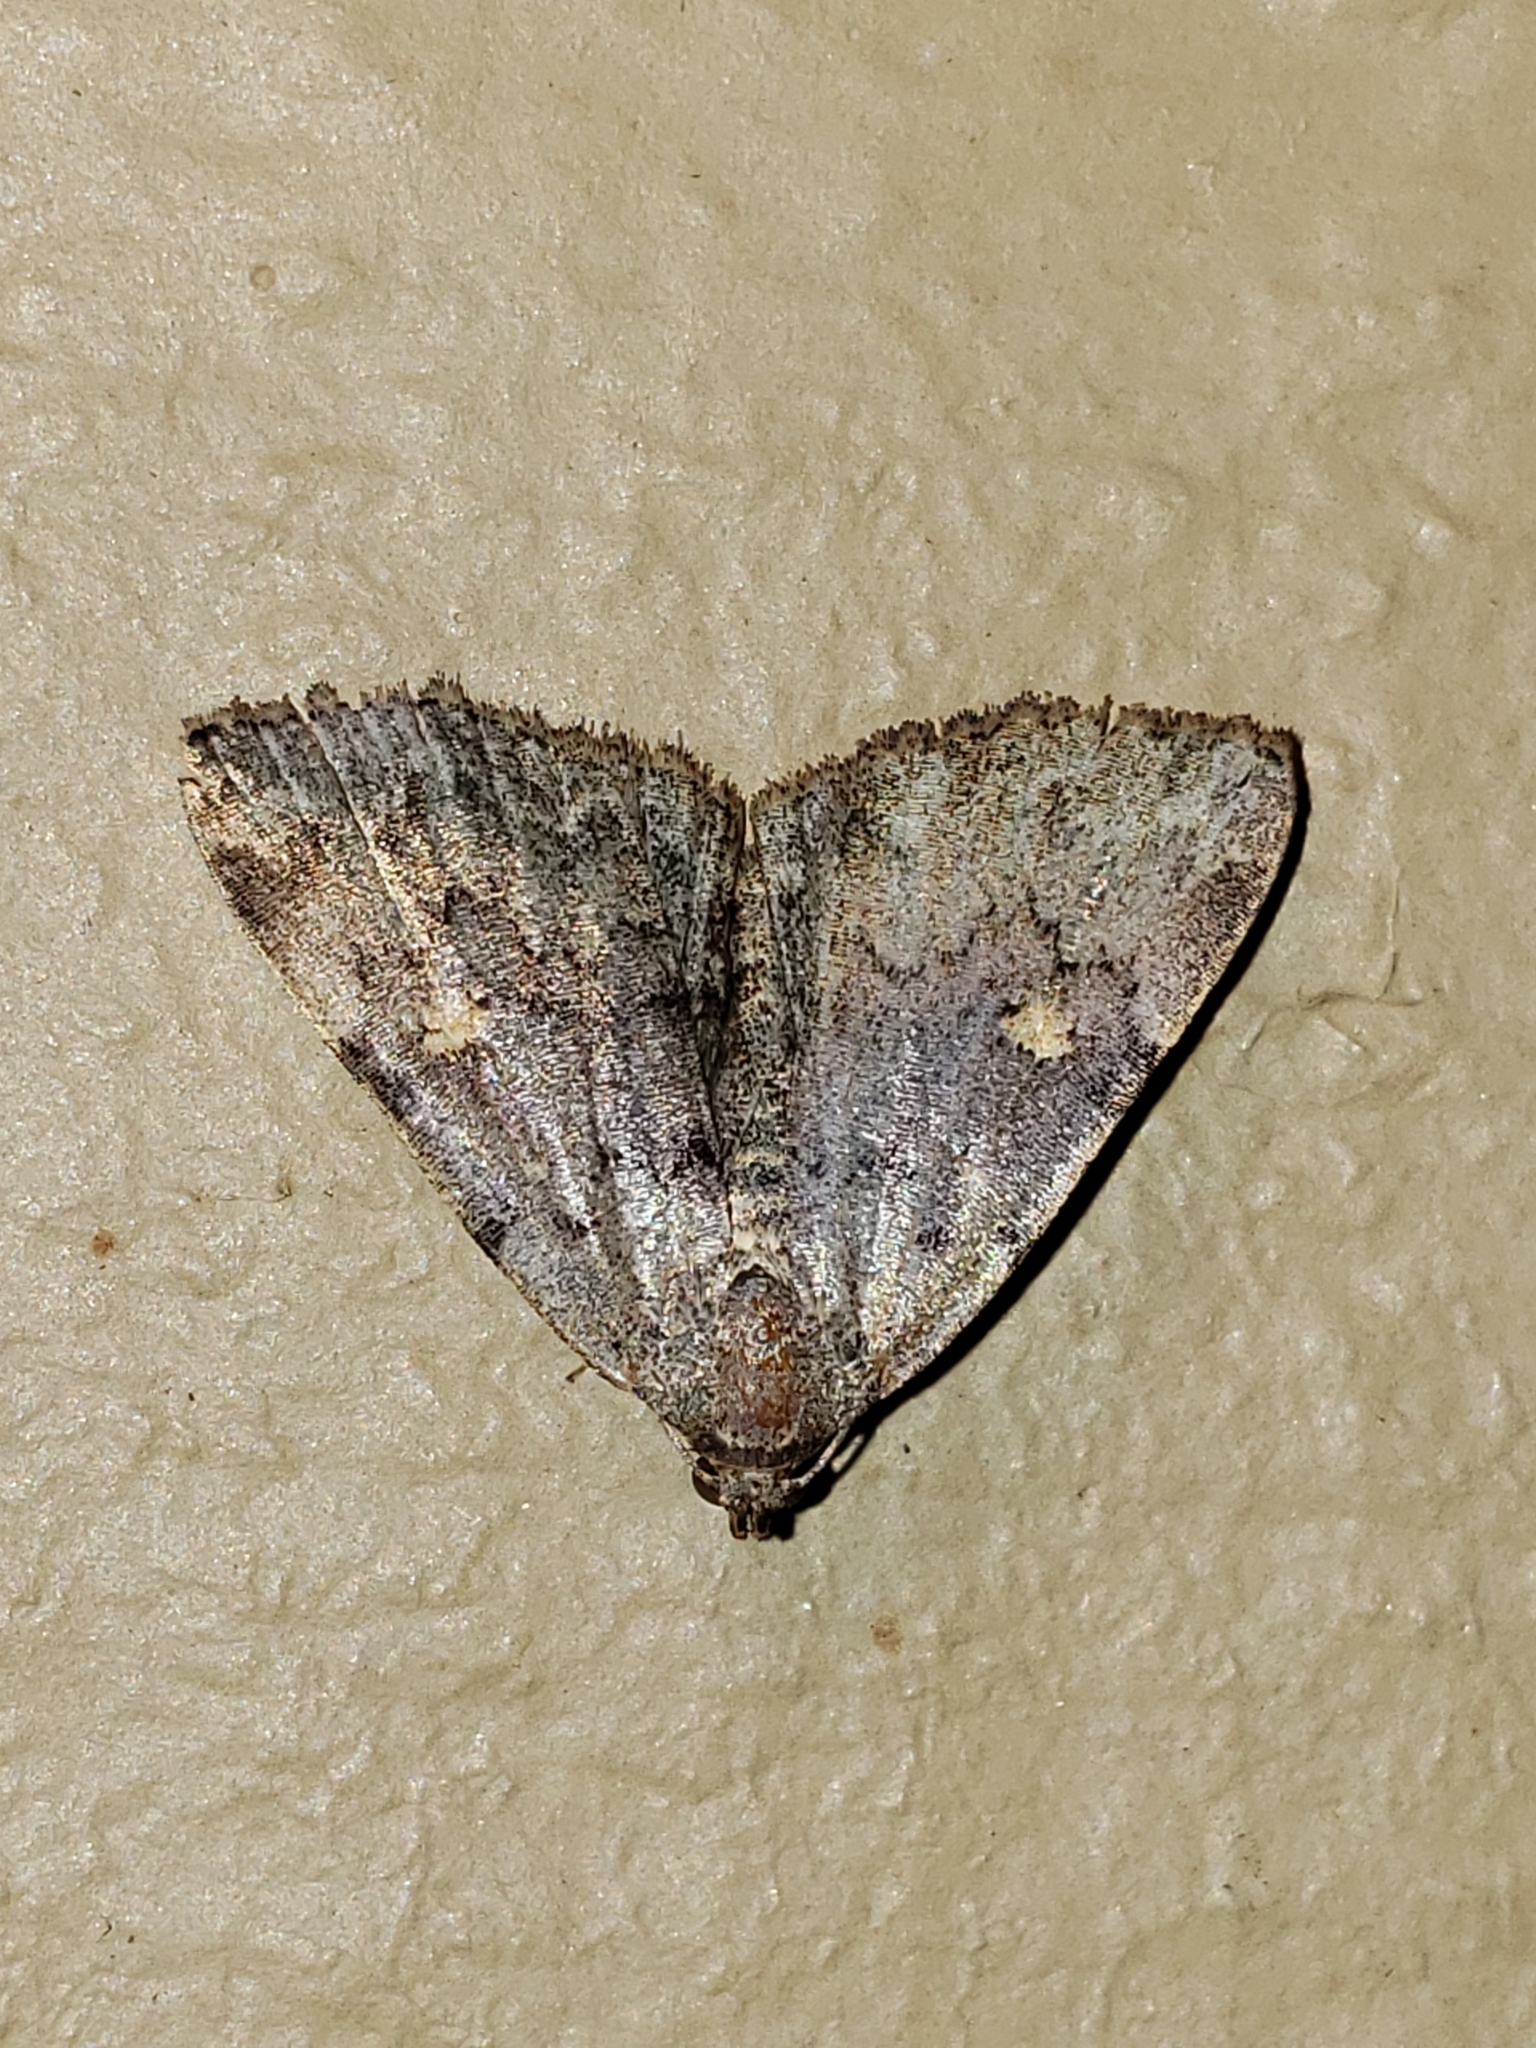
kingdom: Animalia
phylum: Arthropoda
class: Insecta
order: Lepidoptera
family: Erebidae
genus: Idia
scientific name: Idia aemula
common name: Common idia moth
